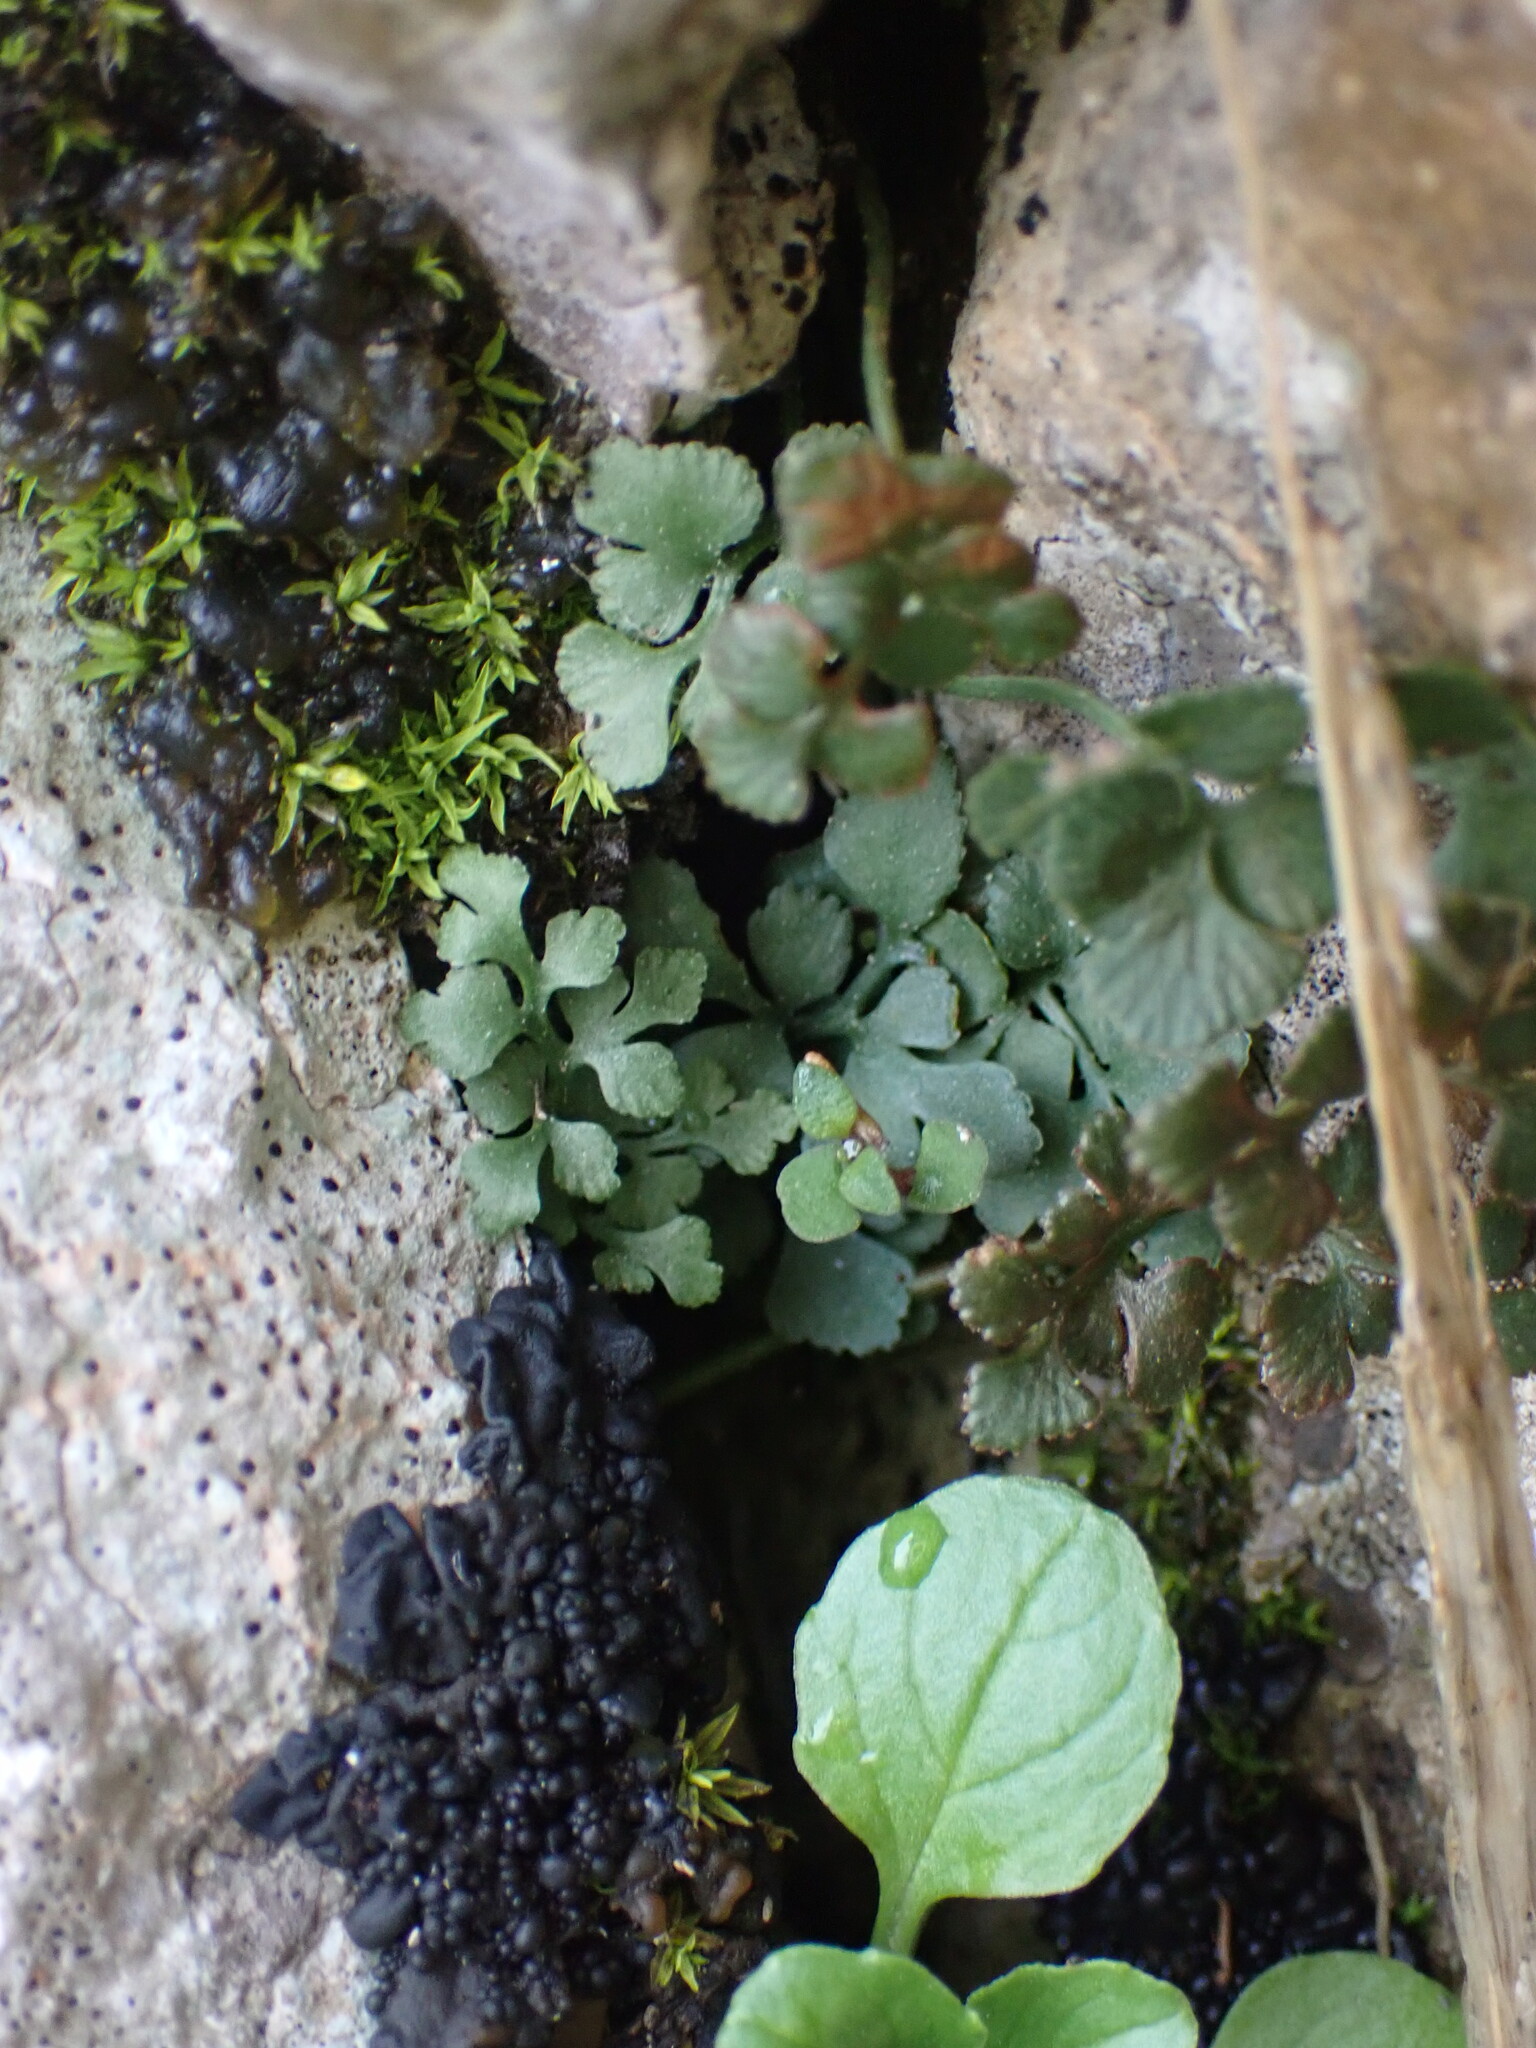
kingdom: Plantae
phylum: Tracheophyta
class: Polypodiopsida
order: Polypodiales
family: Aspleniaceae
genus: Asplenium
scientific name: Asplenium ruta-muraria
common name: Wall-rue
